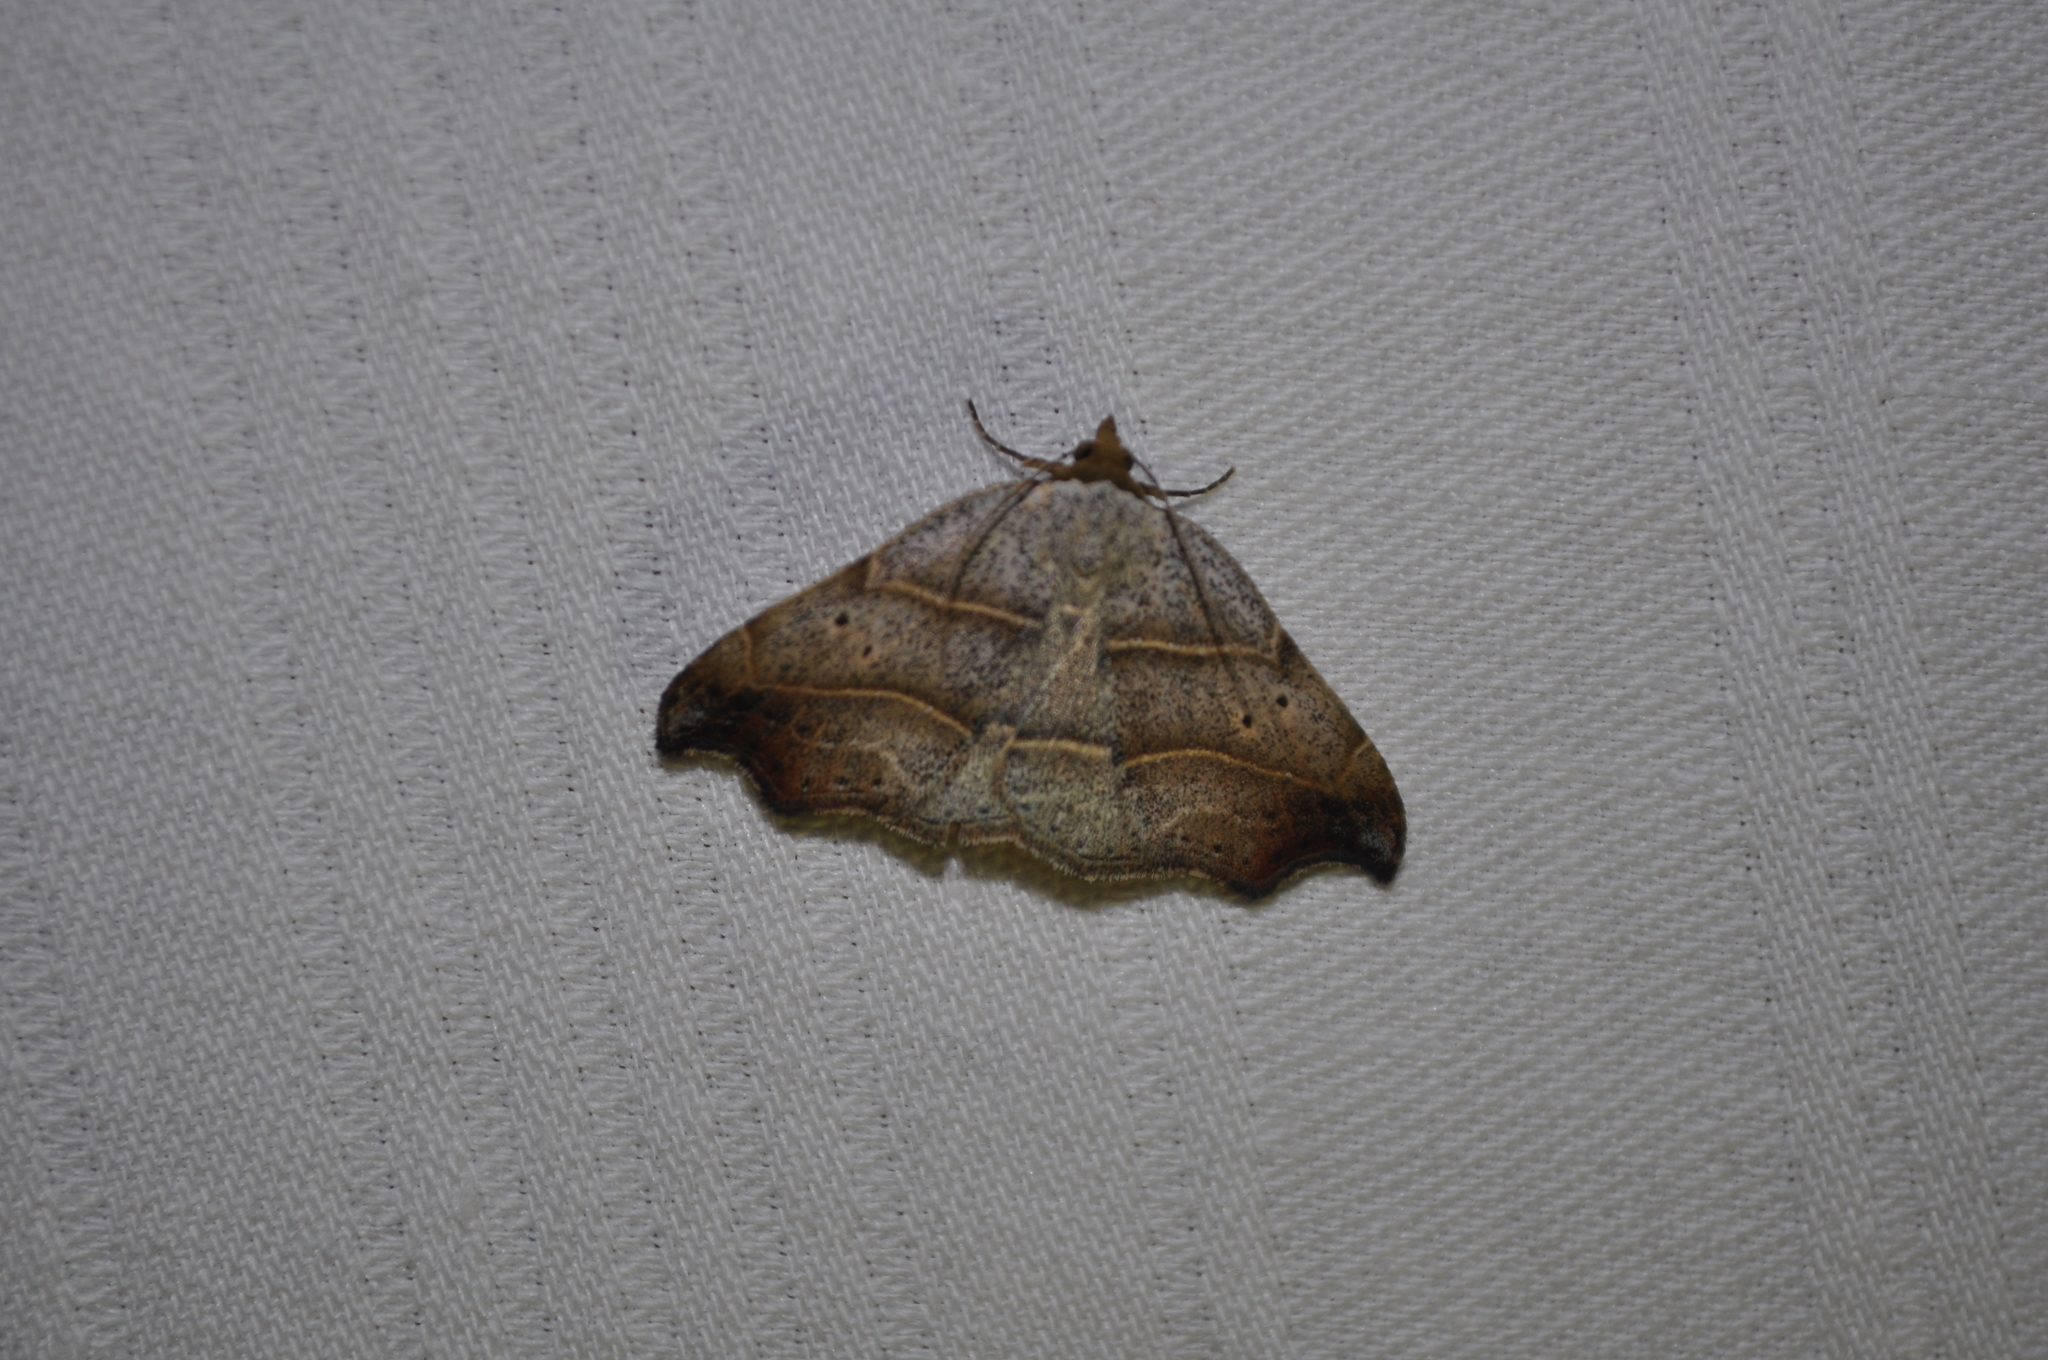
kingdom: Animalia
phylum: Arthropoda
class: Insecta
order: Lepidoptera
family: Erebidae
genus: Laspeyria
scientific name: Laspeyria flexula
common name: Beautiful hook-tip
